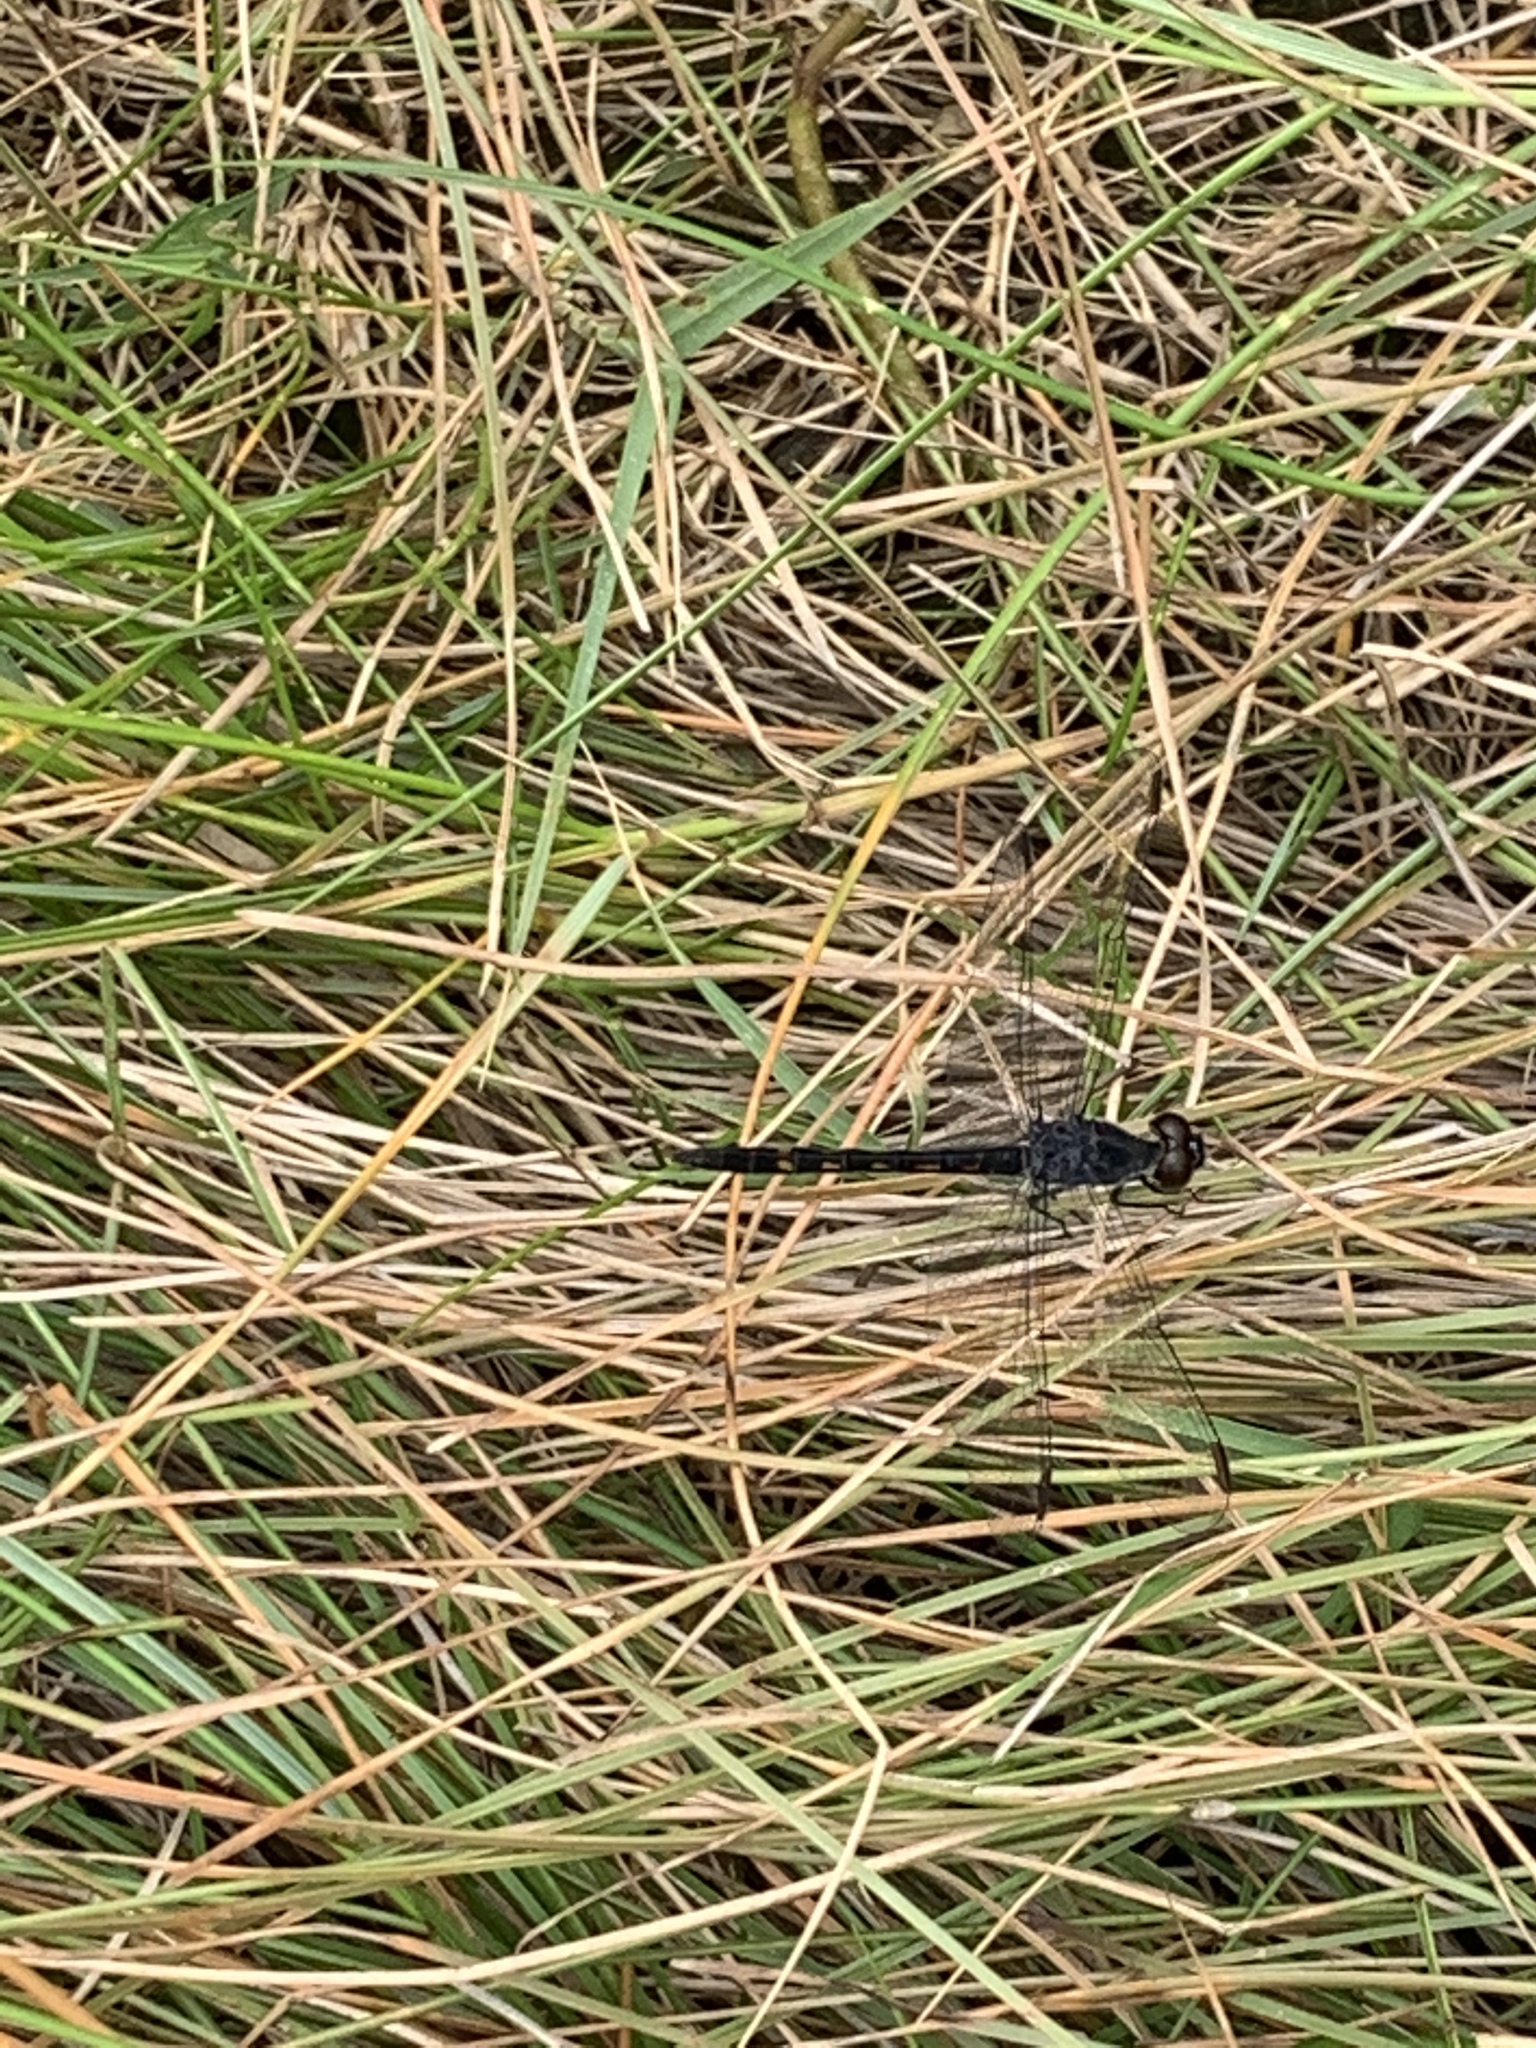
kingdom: Animalia
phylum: Arthropoda
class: Insecta
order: Odonata
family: Libellulidae
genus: Erythrodiplax
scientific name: Erythrodiplax berenice
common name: Seaside dragonlet
